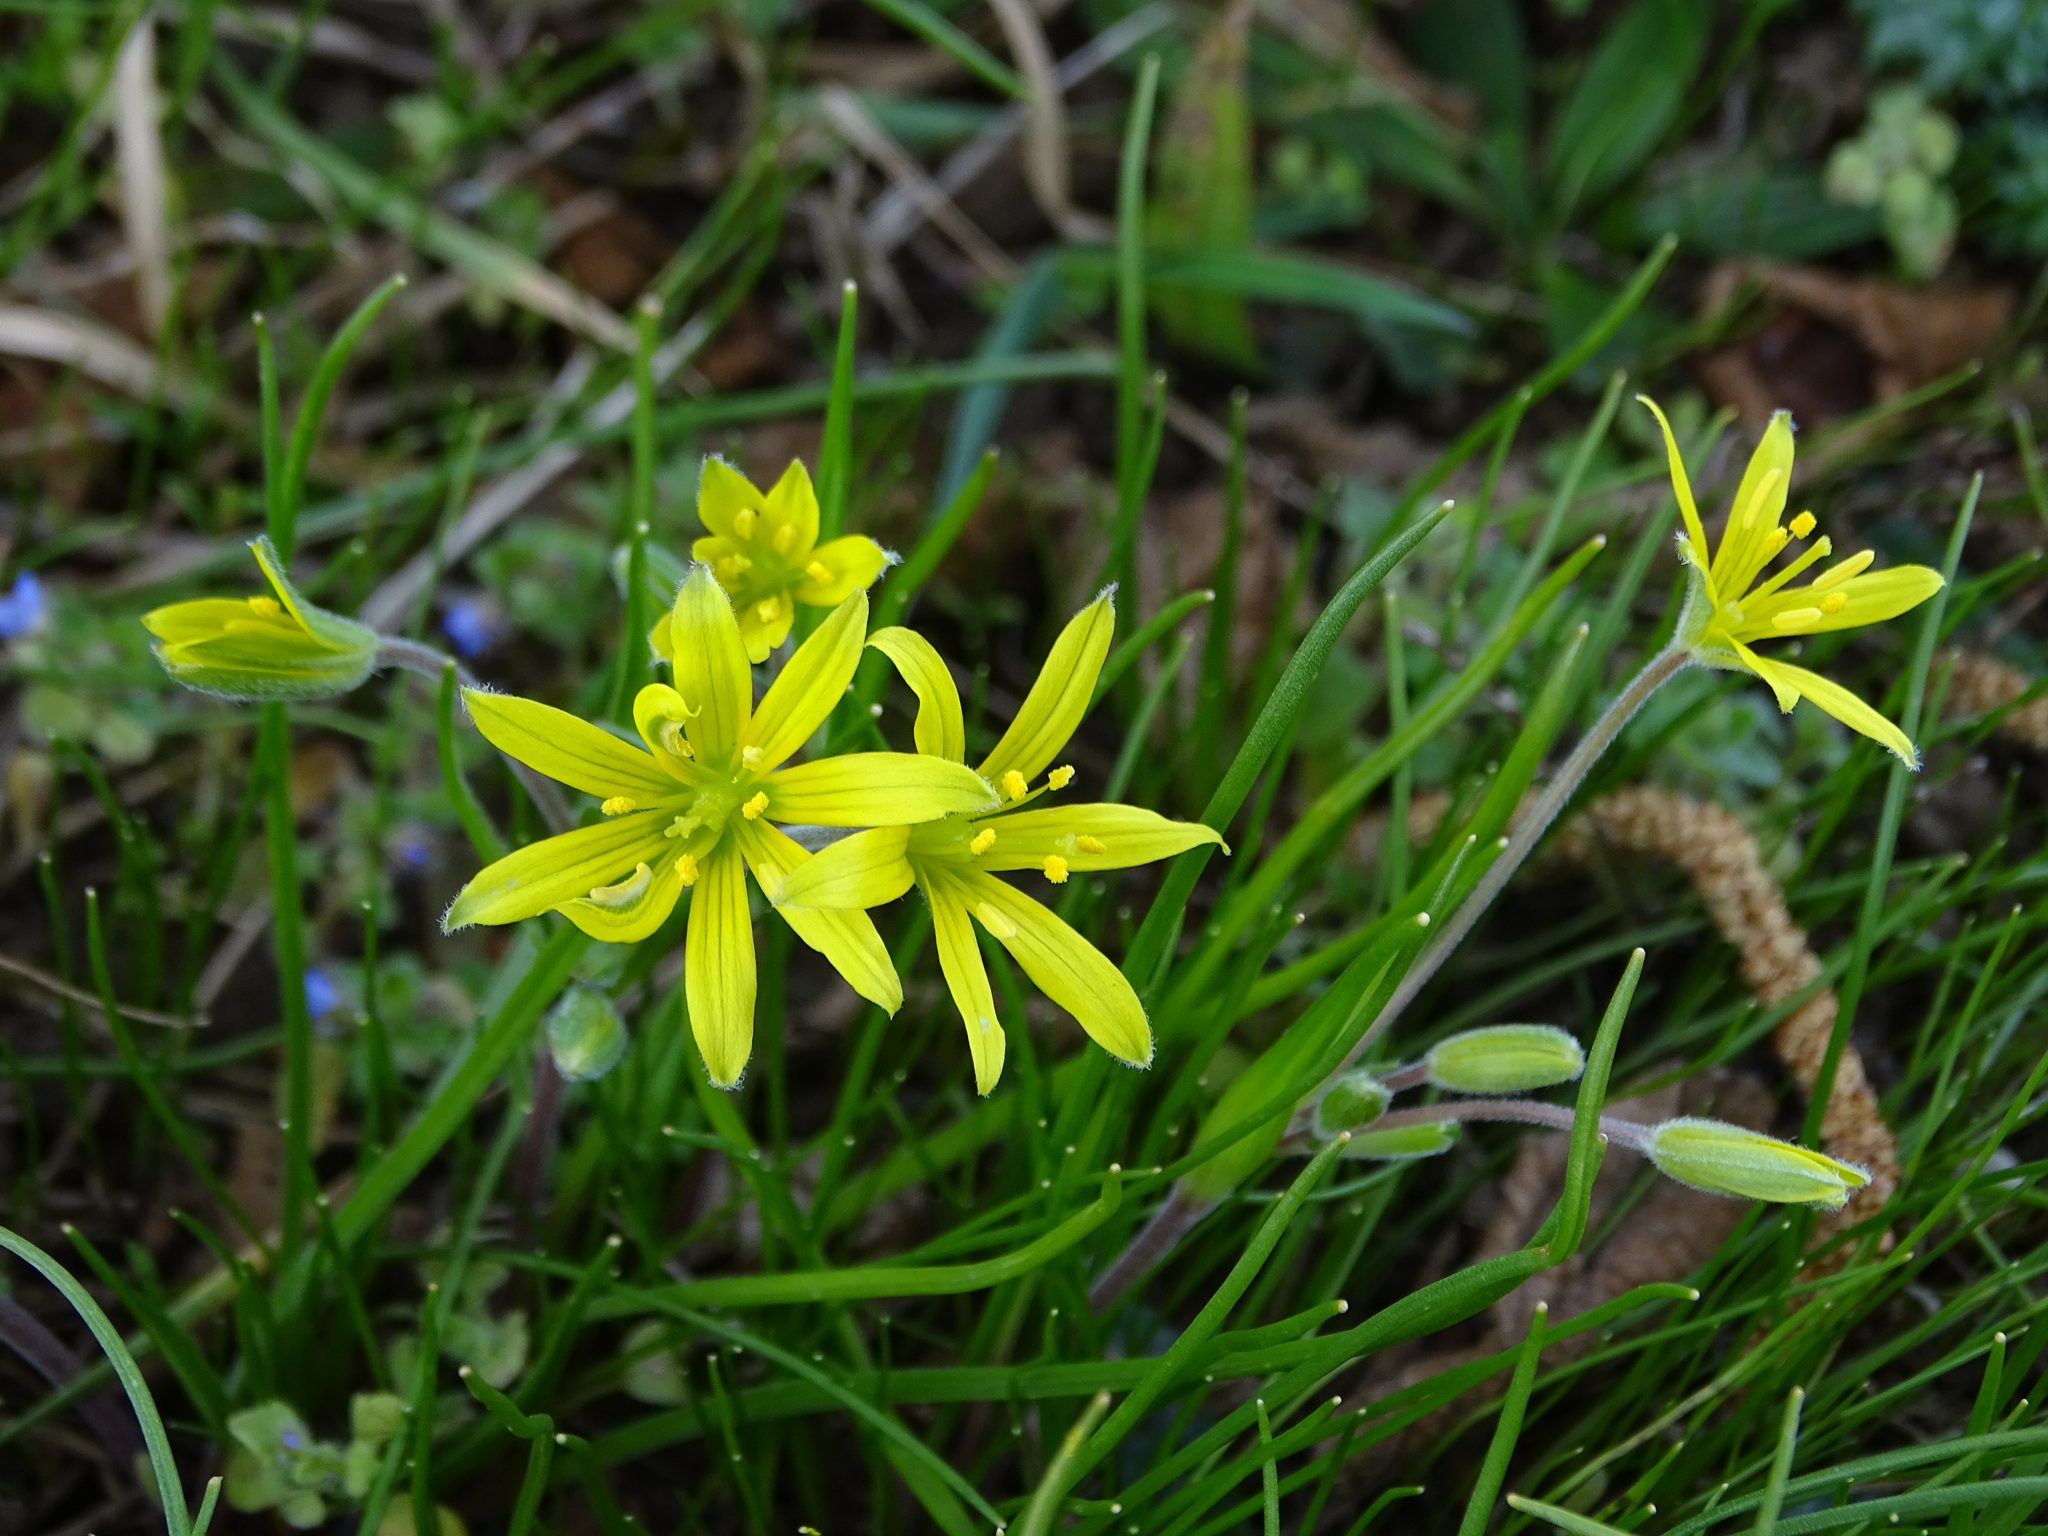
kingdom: Plantae
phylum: Tracheophyta
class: Liliopsida
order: Liliales
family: Liliaceae
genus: Gagea
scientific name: Gagea villosa
